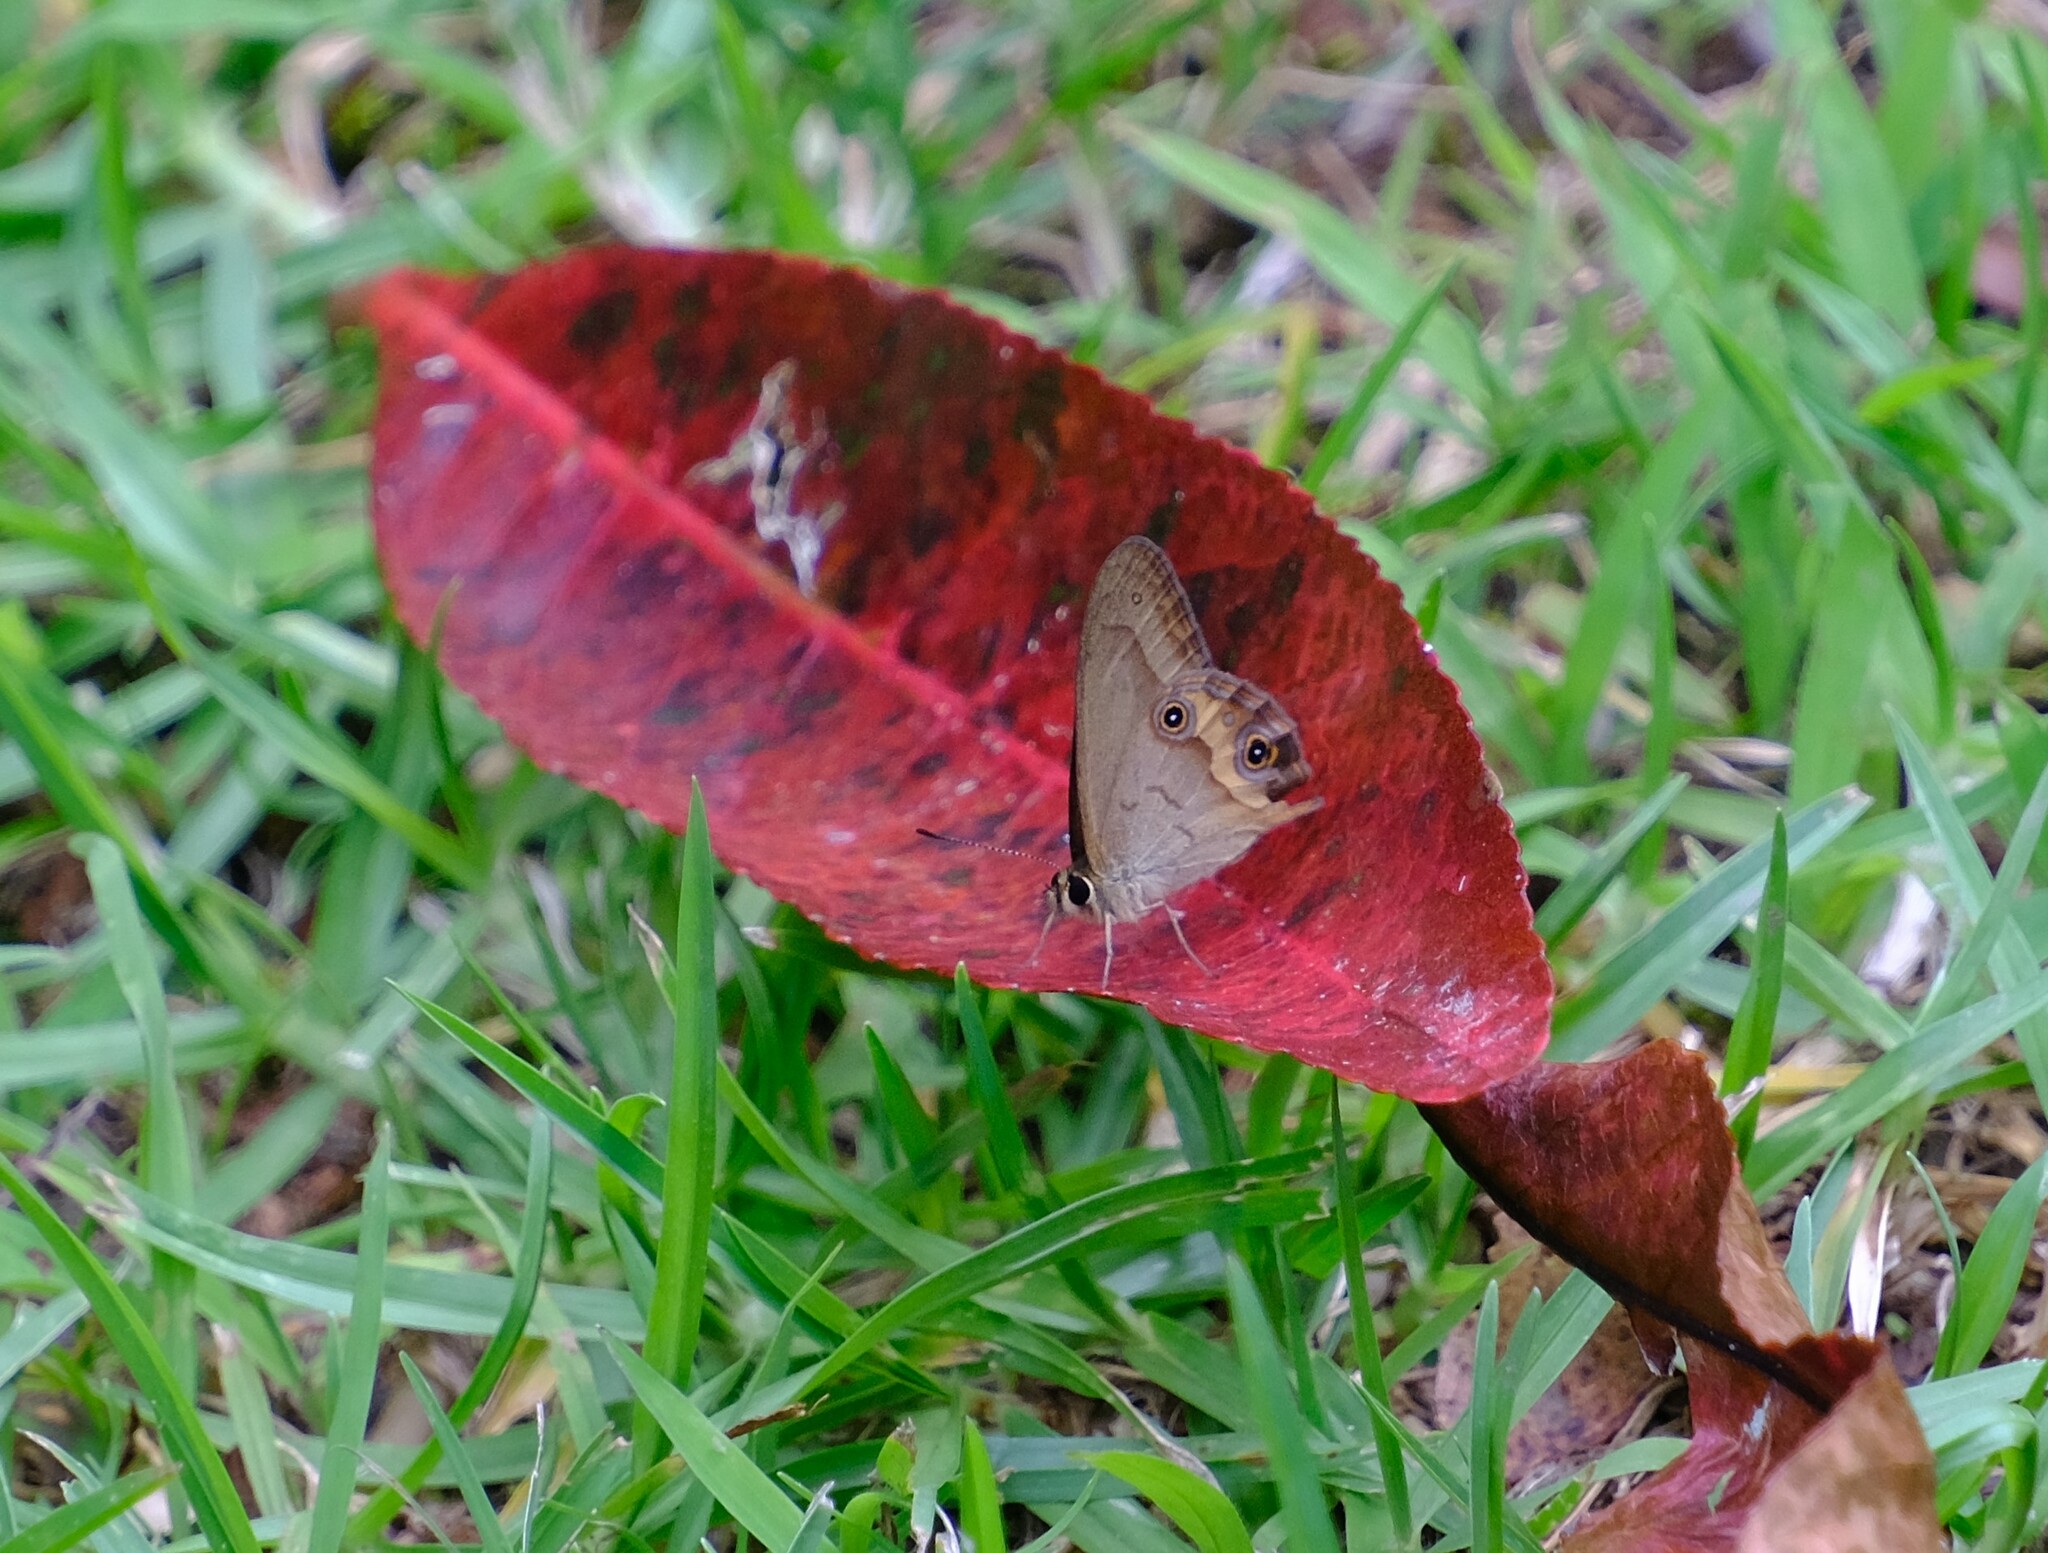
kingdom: Animalia
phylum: Arthropoda
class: Insecta
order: Lepidoptera
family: Nymphalidae
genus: Hypocysta
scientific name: Hypocysta metirius
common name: Brown ringlet
